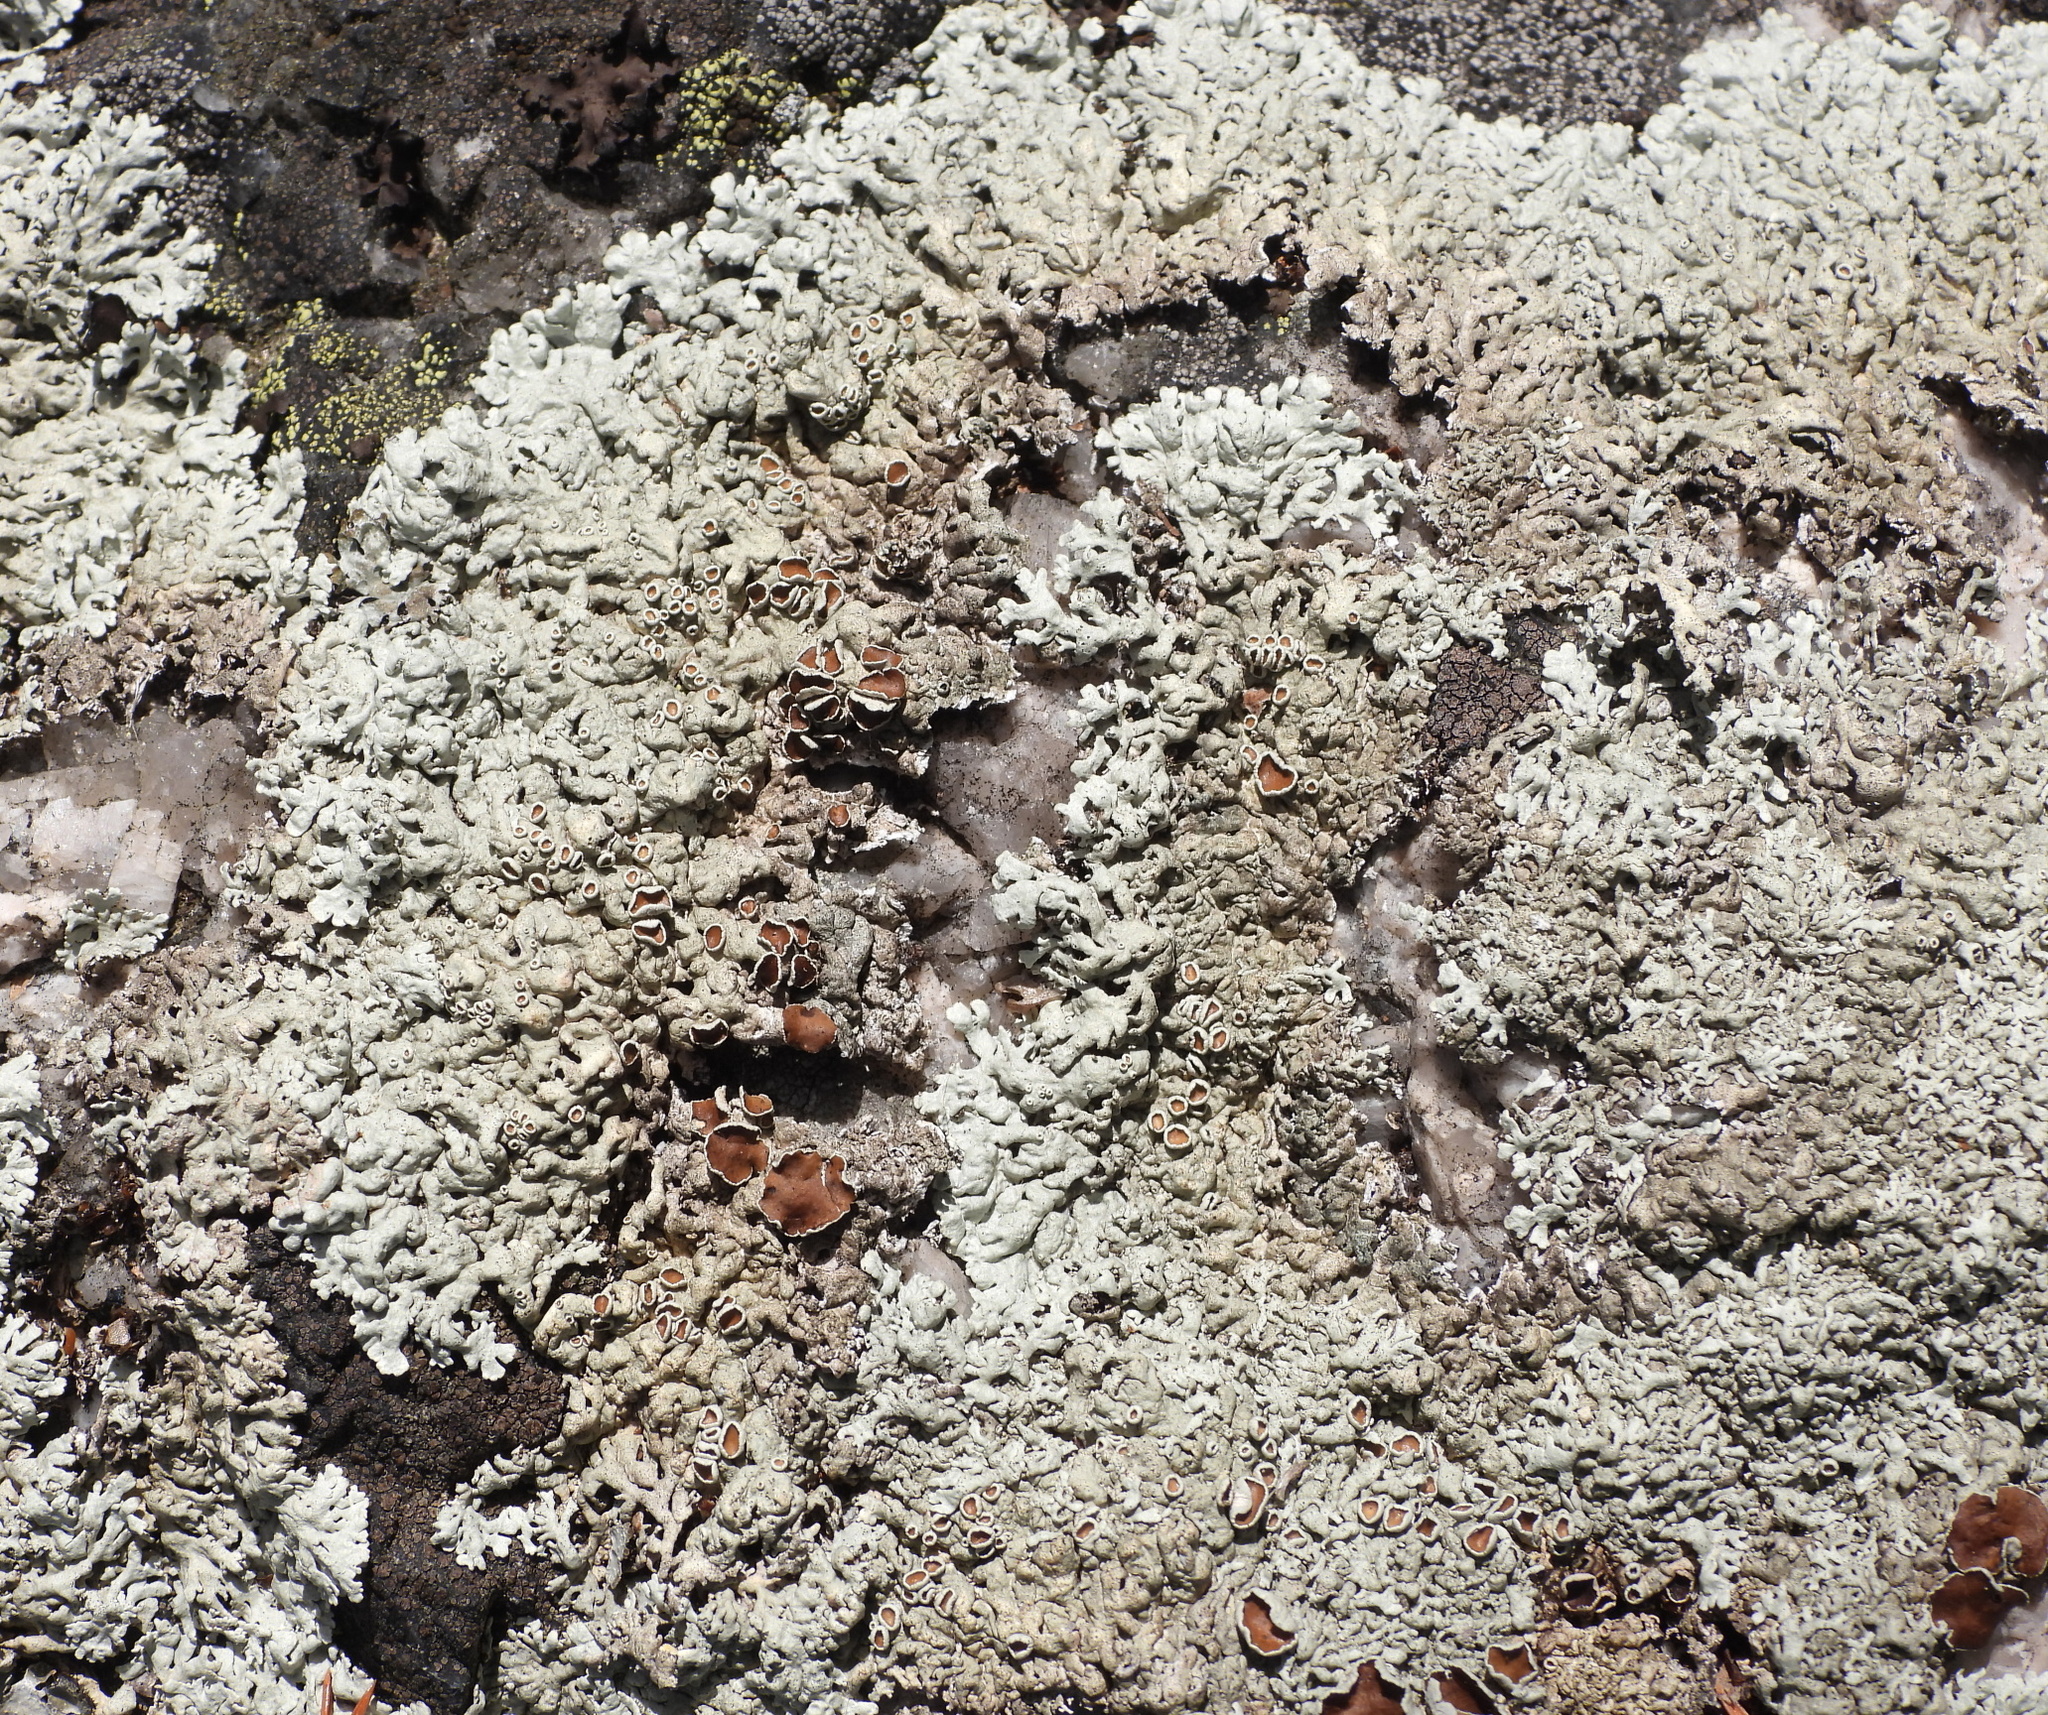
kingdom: Fungi
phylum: Ascomycota
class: Lecanoromycetes
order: Lecanorales
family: Parmeliaceae
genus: Arctoparmelia
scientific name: Arctoparmelia centrifuga
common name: Concentric ring lichen
